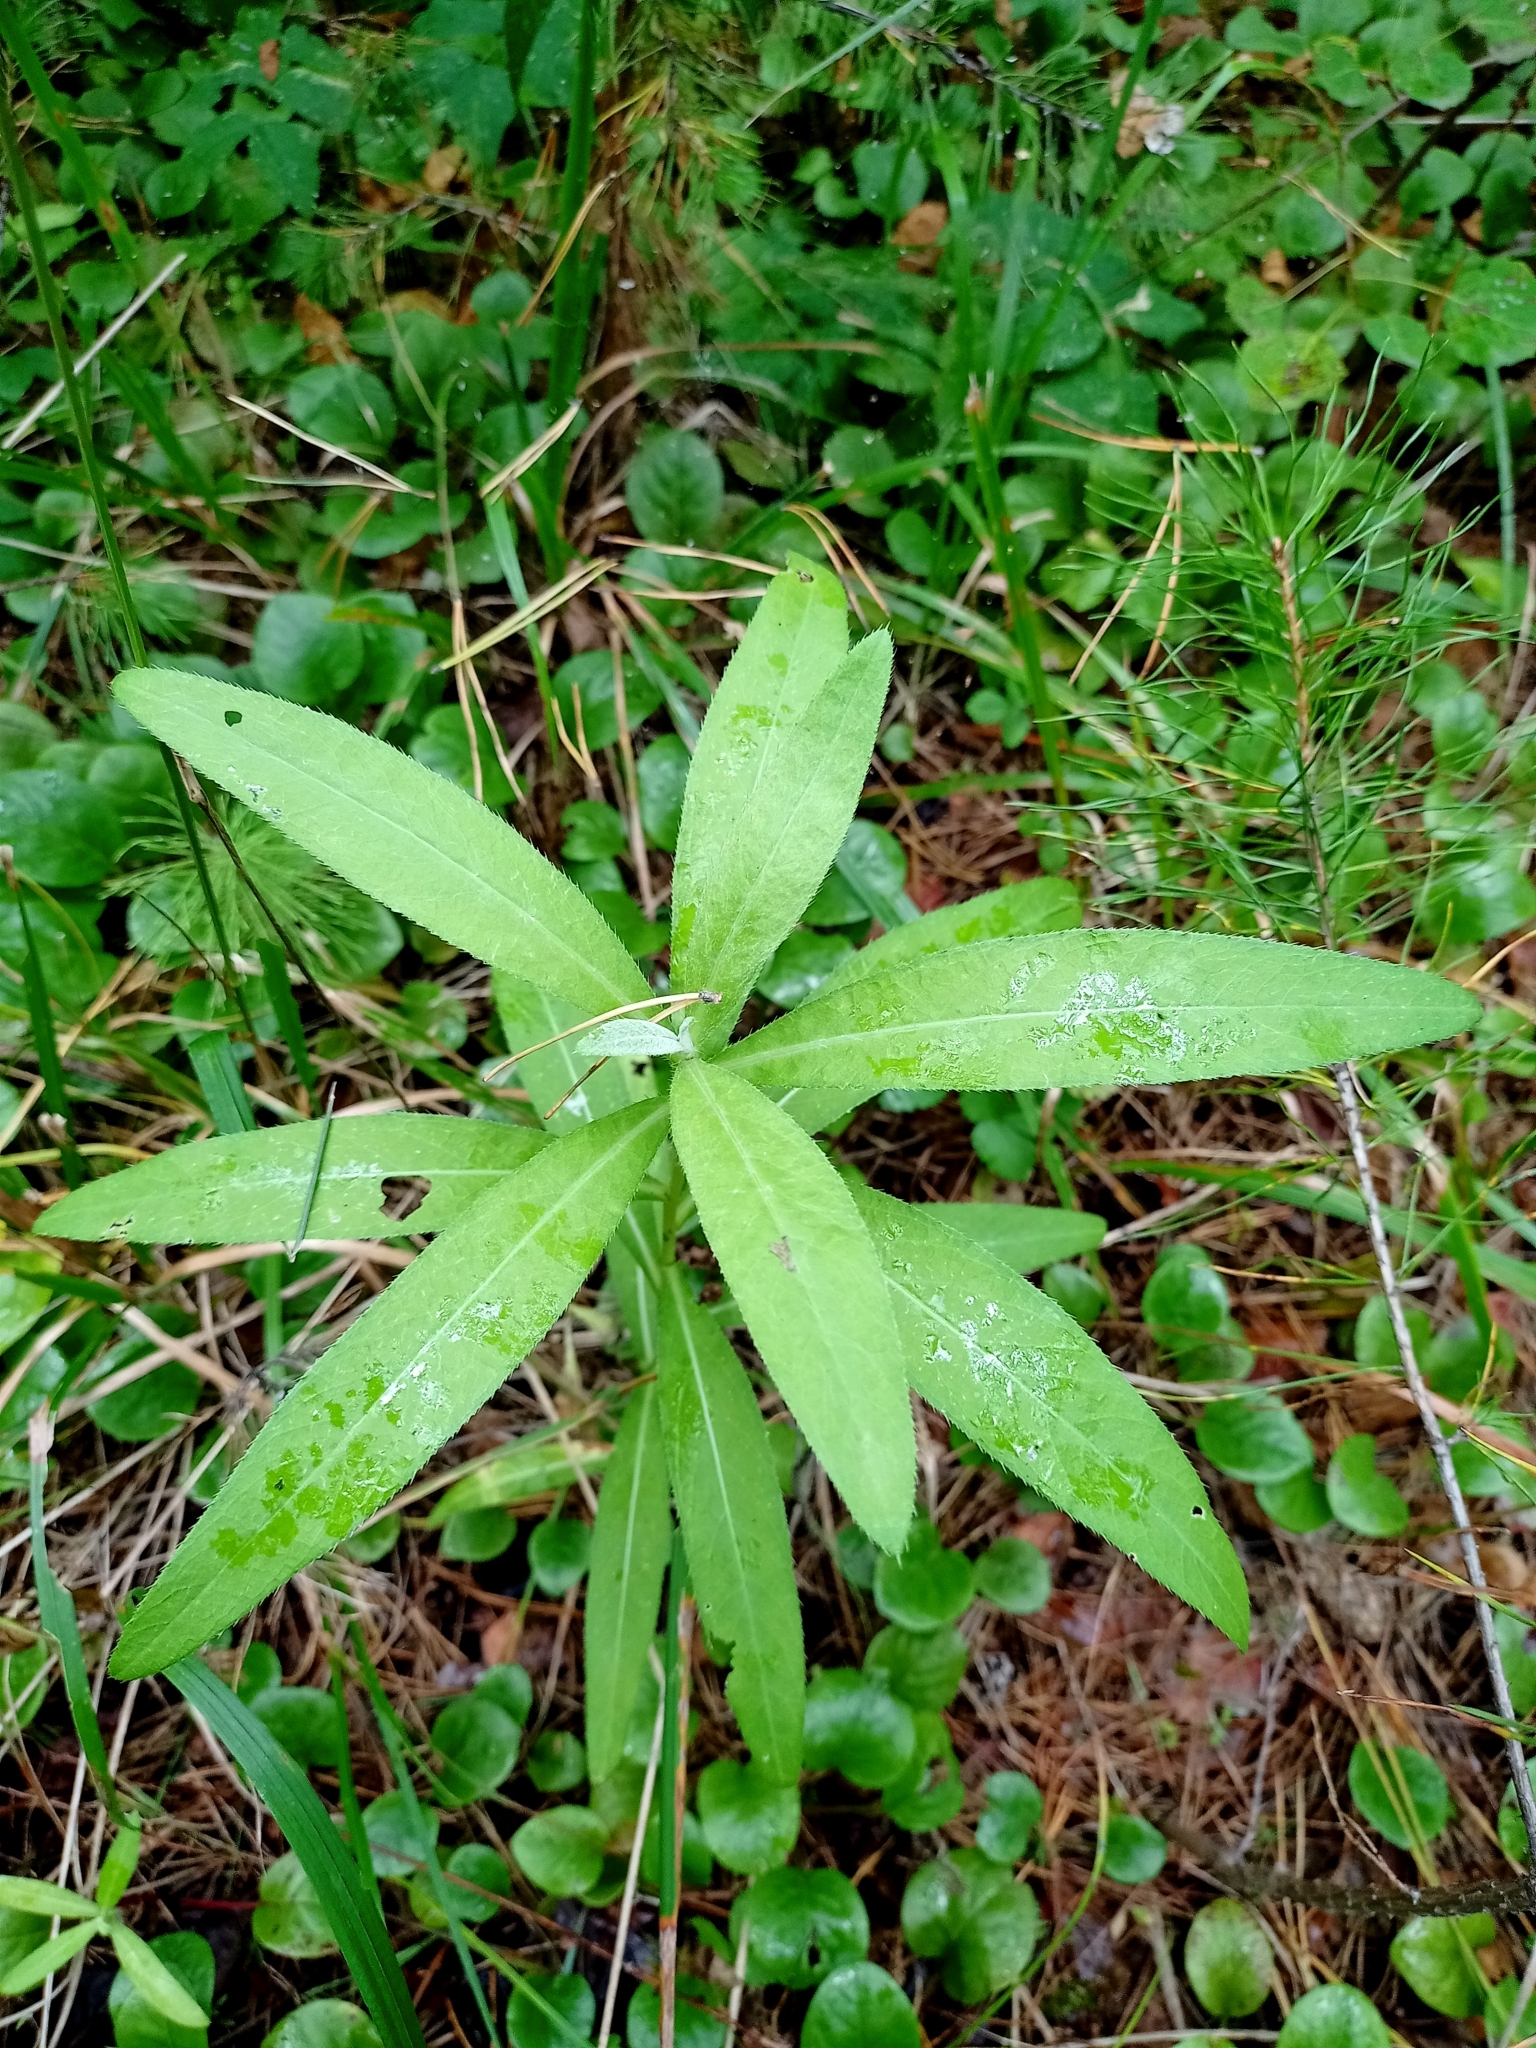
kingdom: Plantae
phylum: Tracheophyta
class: Magnoliopsida
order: Asterales
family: Asteraceae
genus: Cirsium
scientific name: Cirsium arvense
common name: Creeping thistle
